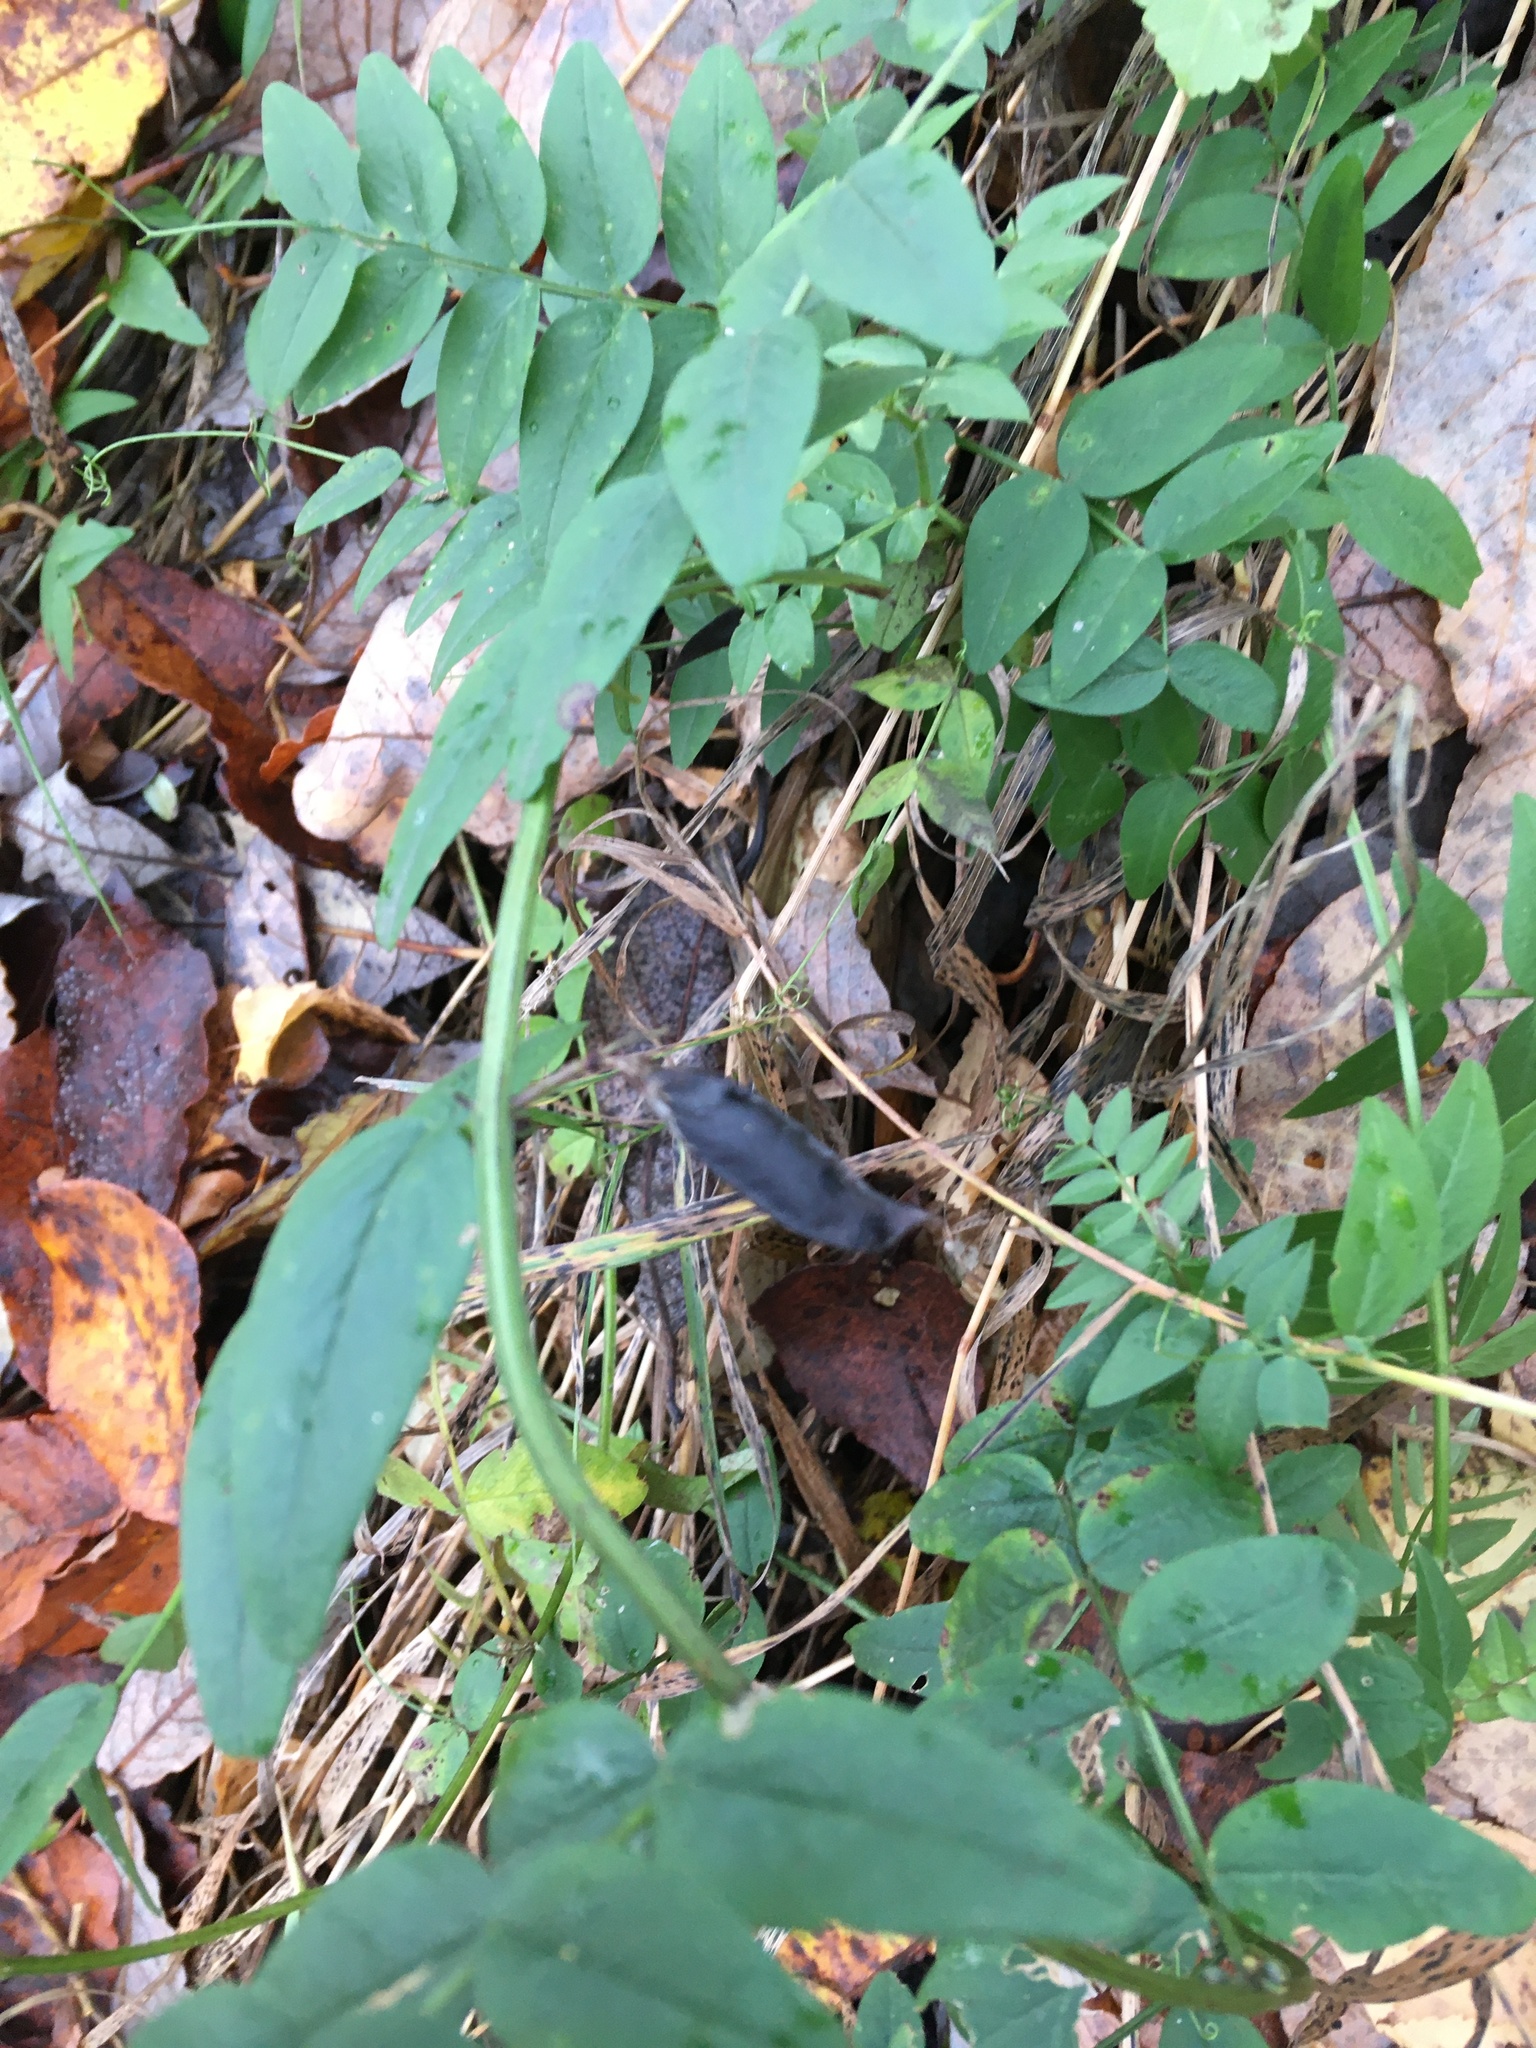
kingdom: Plantae
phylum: Tracheophyta
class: Magnoliopsida
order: Fabales
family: Fabaceae
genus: Vicia
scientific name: Vicia sepium
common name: Bush vetch
